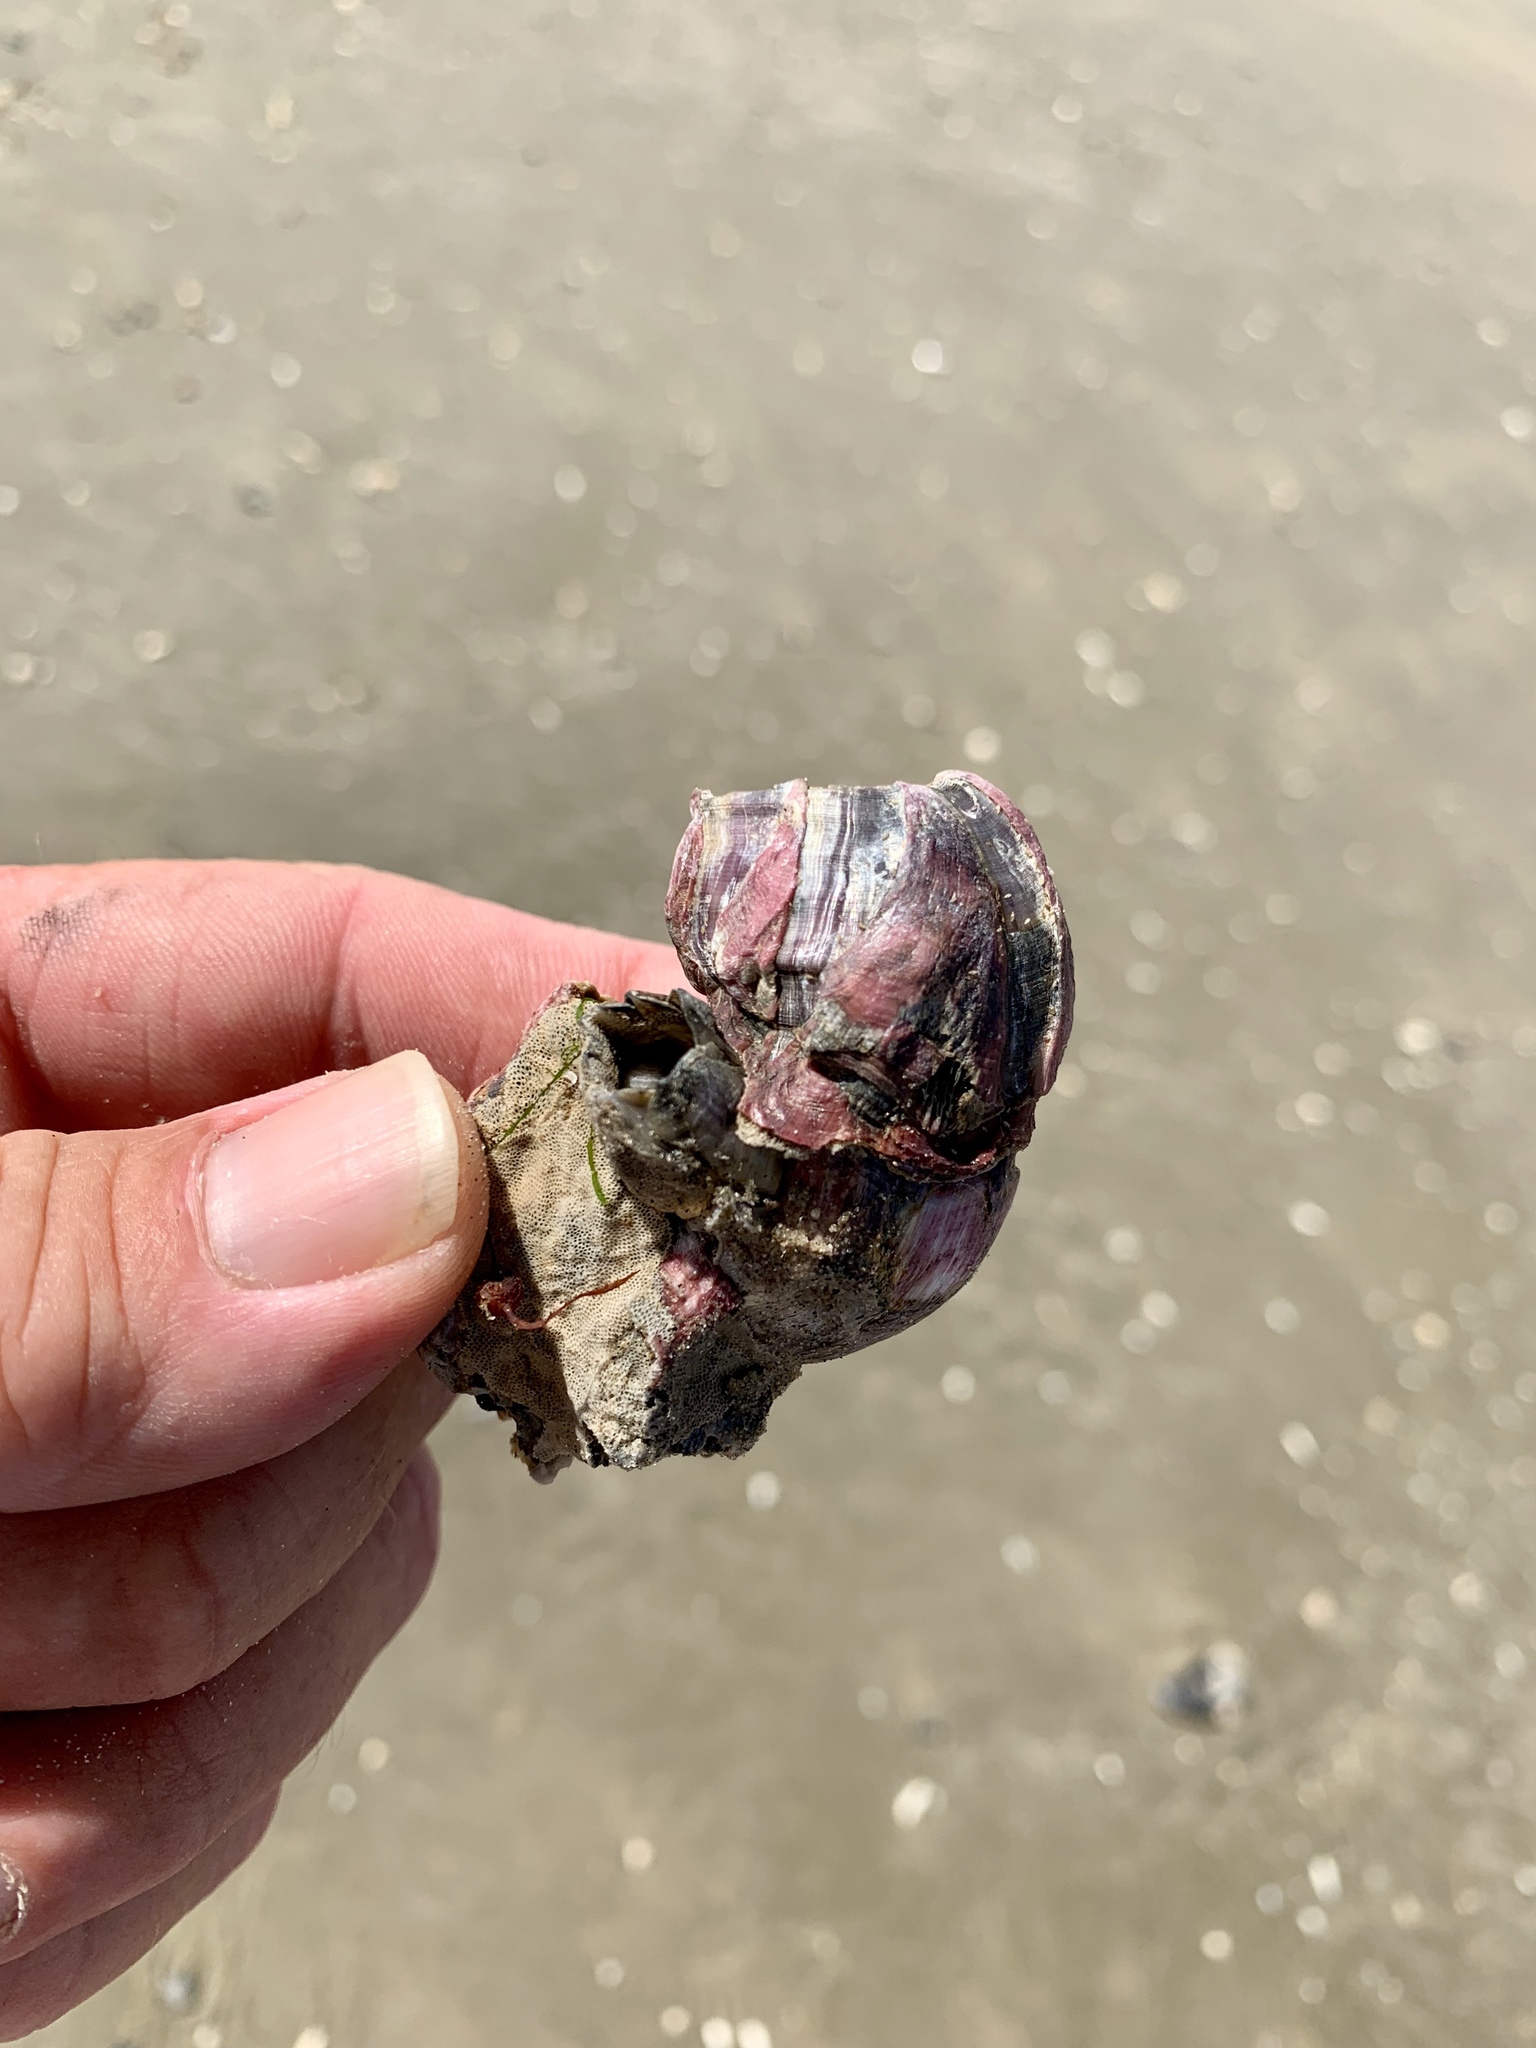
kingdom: Animalia
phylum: Arthropoda
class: Maxillopoda
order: Sessilia
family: Balanidae
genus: Megabalanus
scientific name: Megabalanus tintinnabulum
